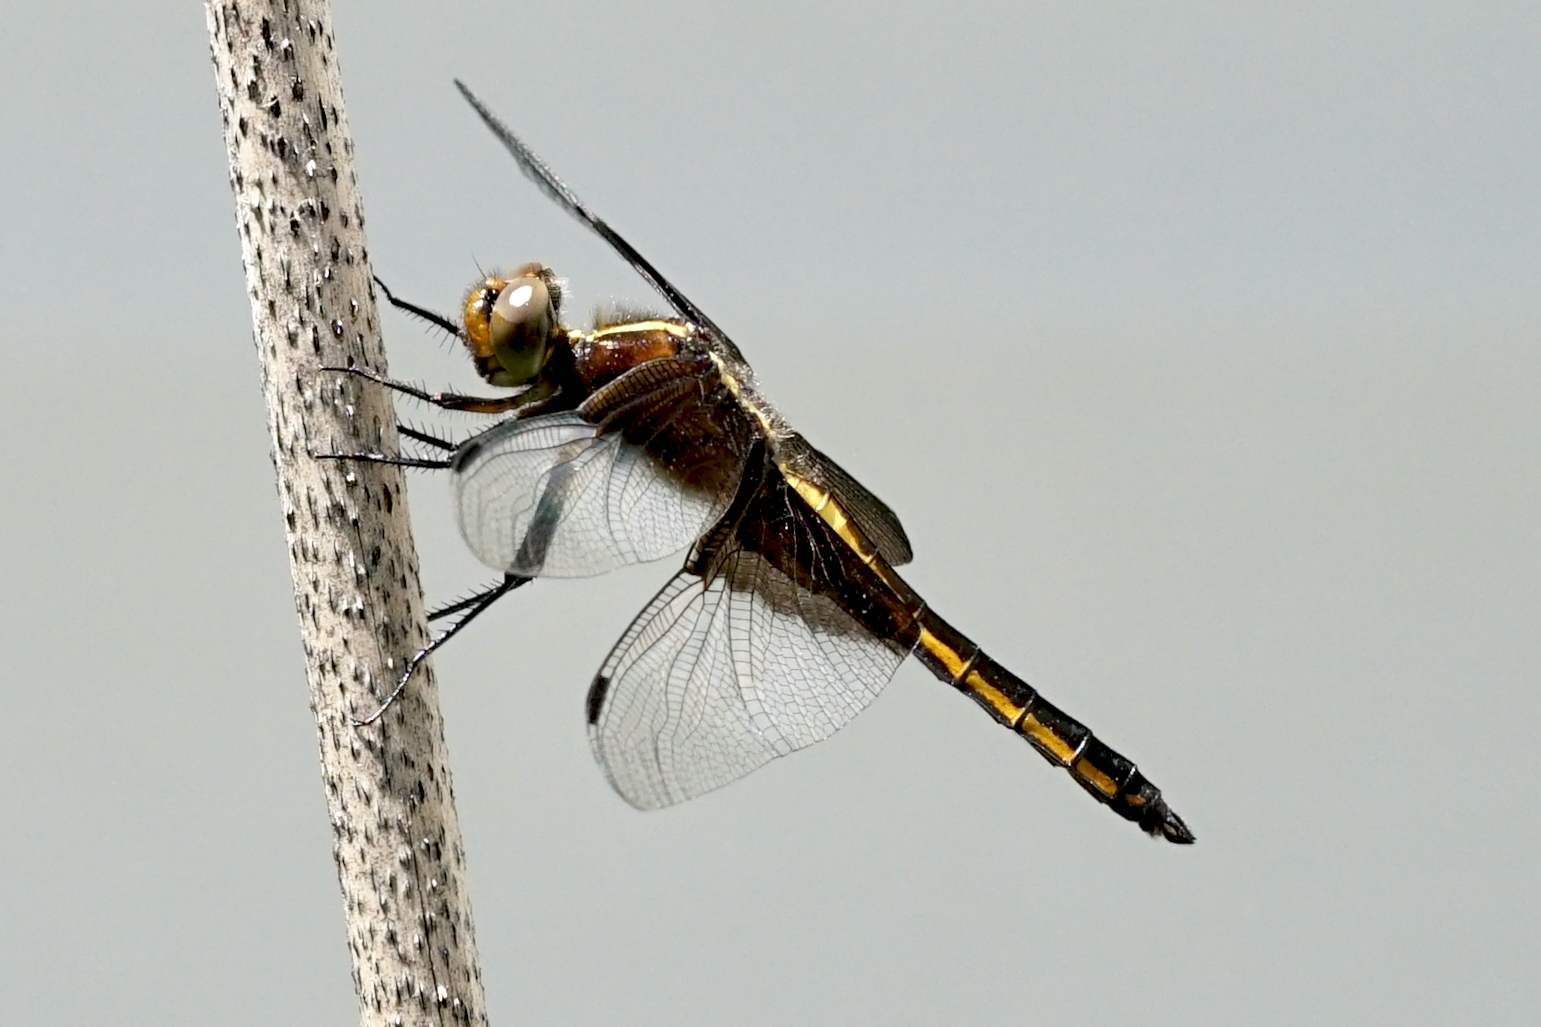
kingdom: Animalia
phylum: Arthropoda
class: Insecta
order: Odonata
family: Libellulidae
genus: Libellula
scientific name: Libellula luctuosa
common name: Widow skimmer
